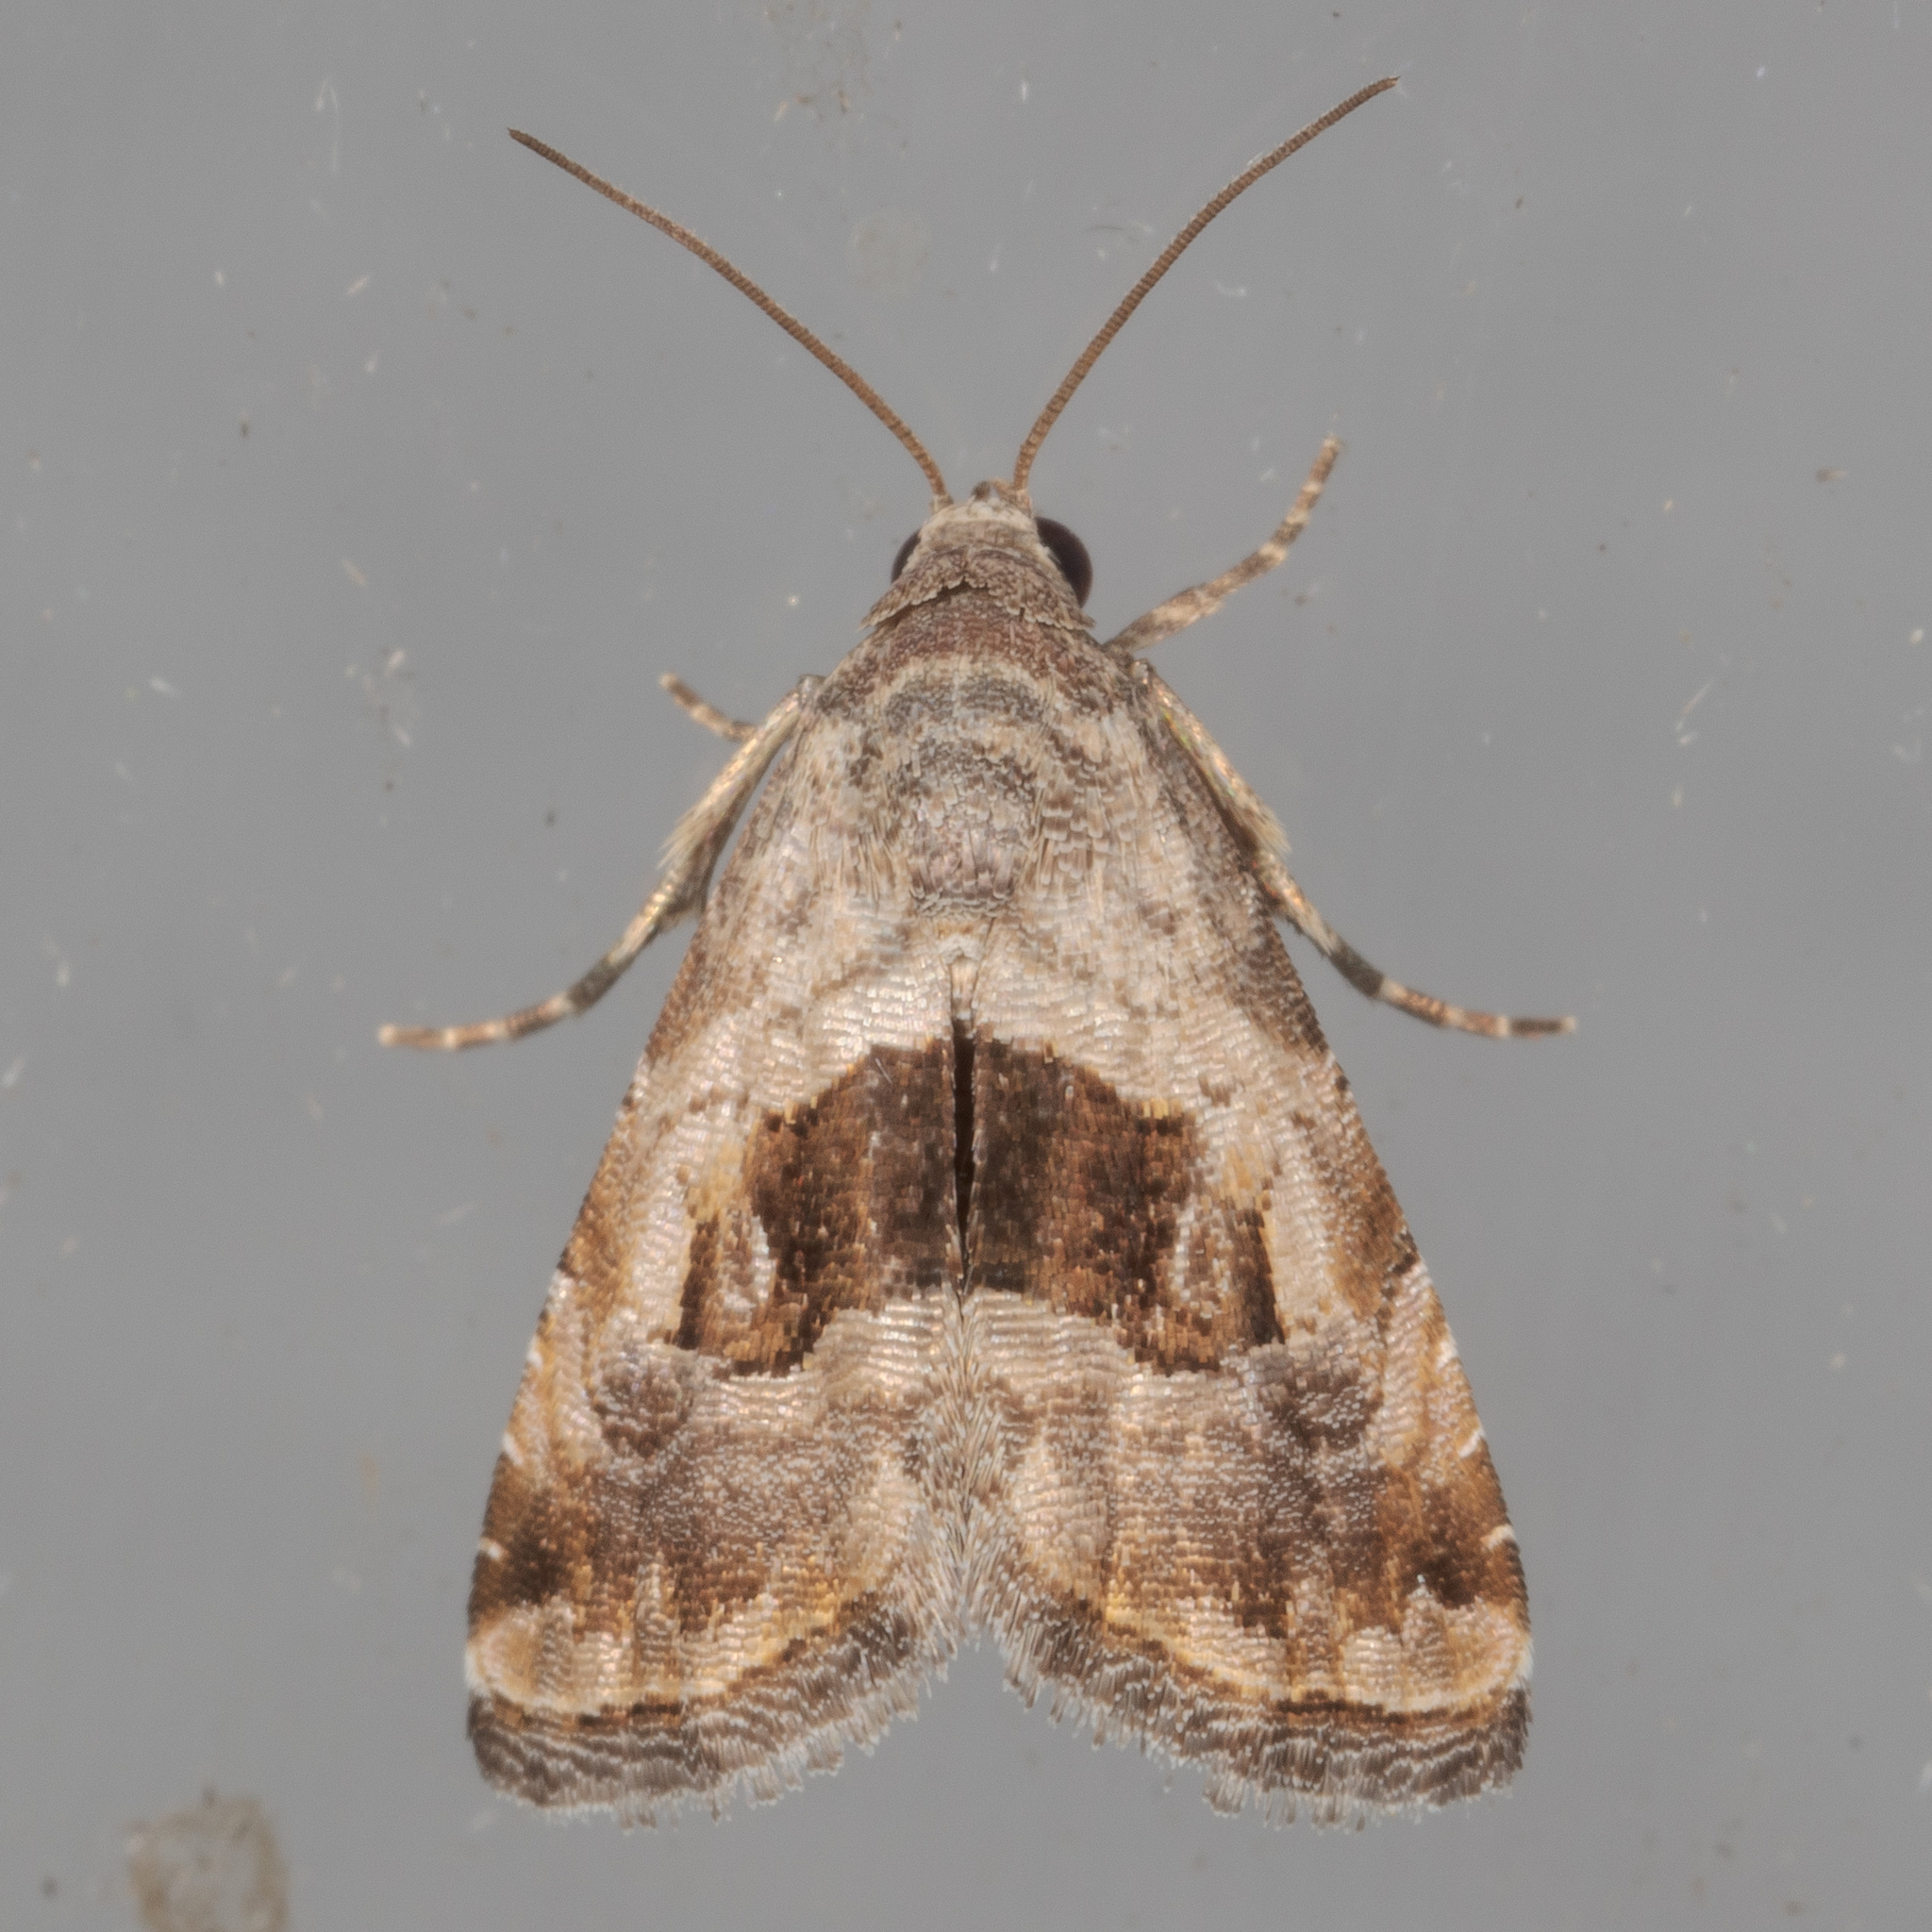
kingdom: Animalia
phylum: Arthropoda
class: Insecta
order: Lepidoptera
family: Noctuidae
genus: Tripudia
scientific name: Tripudia quadrifera
